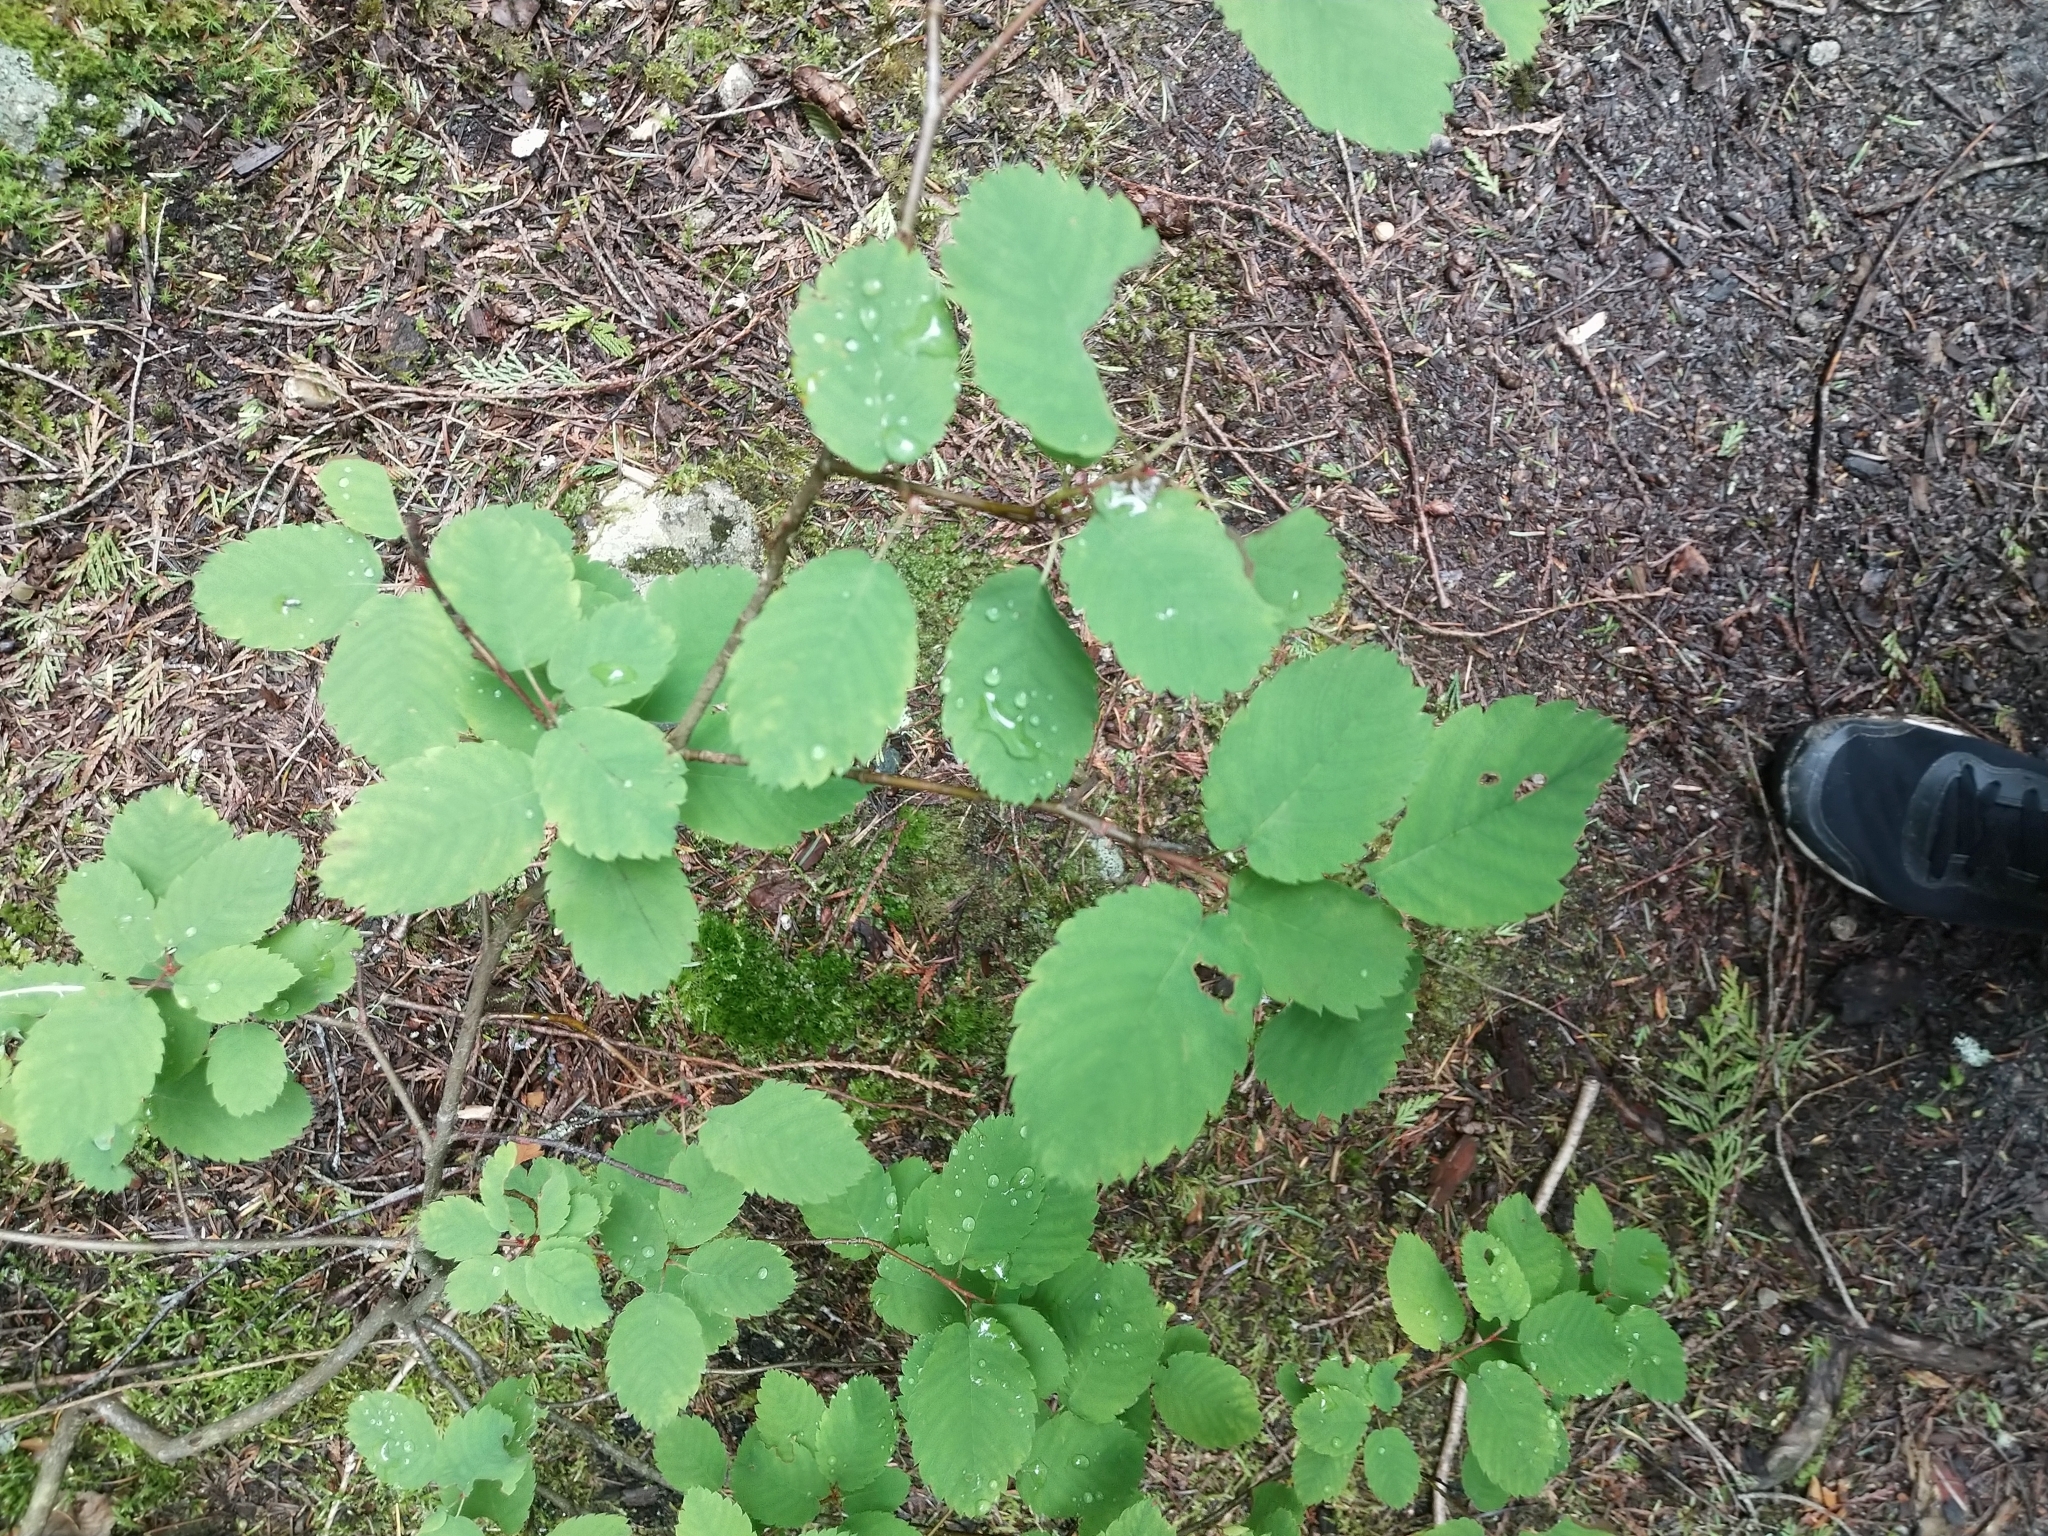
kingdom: Plantae
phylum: Tracheophyta
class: Magnoliopsida
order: Rosales
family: Rosaceae
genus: Amelanchier
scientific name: Amelanchier alnifolia
